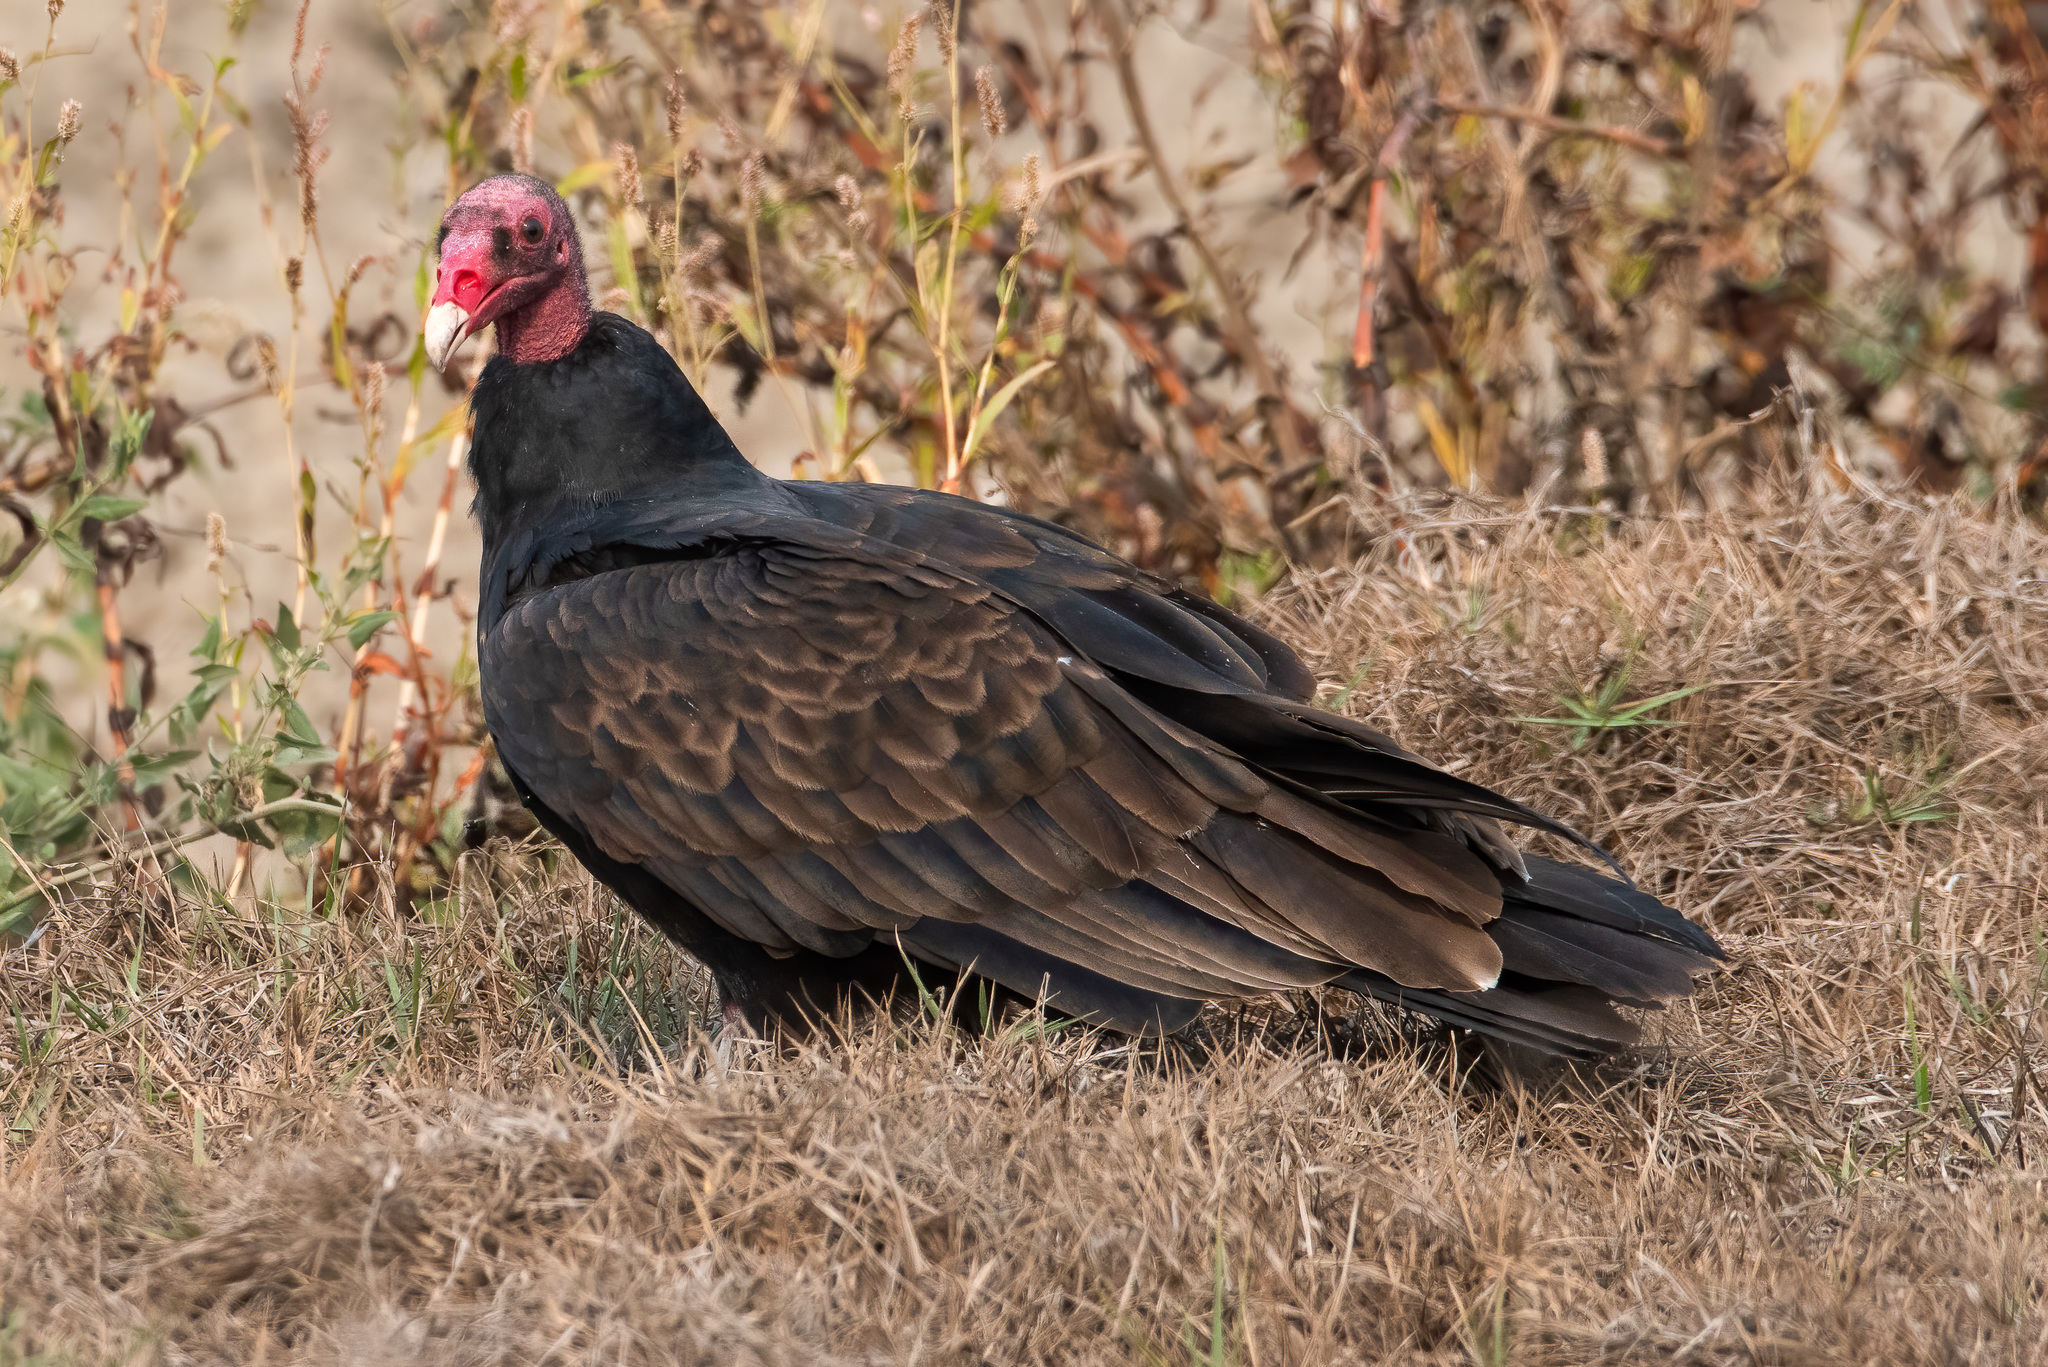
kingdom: Animalia
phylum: Chordata
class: Aves
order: Accipitriformes
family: Cathartidae
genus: Cathartes
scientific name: Cathartes aura
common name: Turkey vulture
